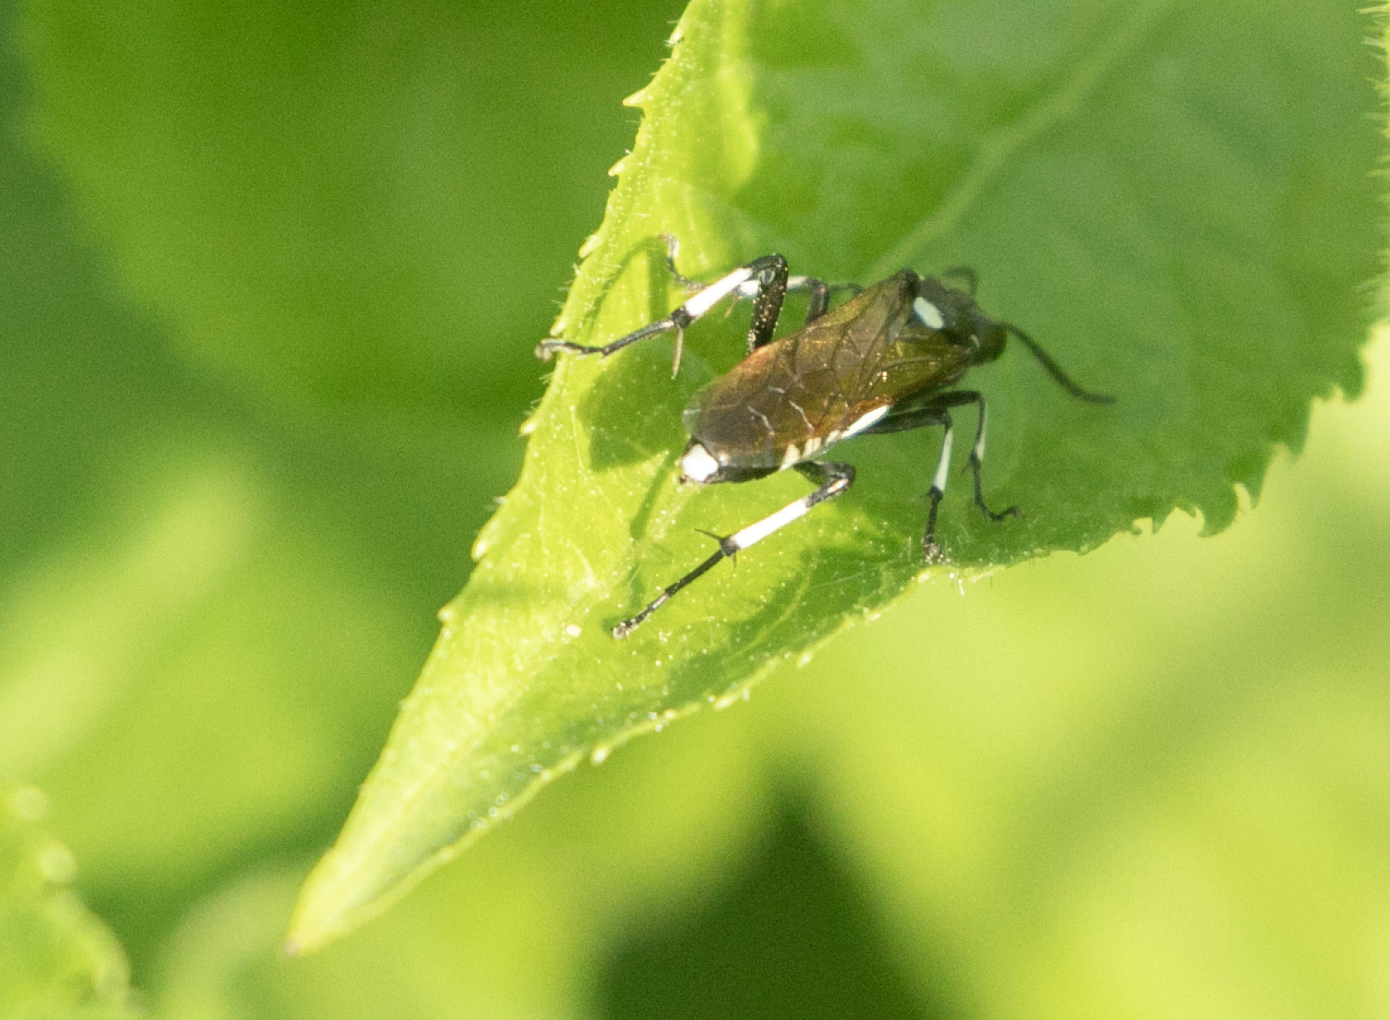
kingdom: Animalia
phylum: Arthropoda
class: Insecta
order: Hymenoptera
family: Tenthredinidae
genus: Macrophya
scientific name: Macrophya duodecimpunctata
